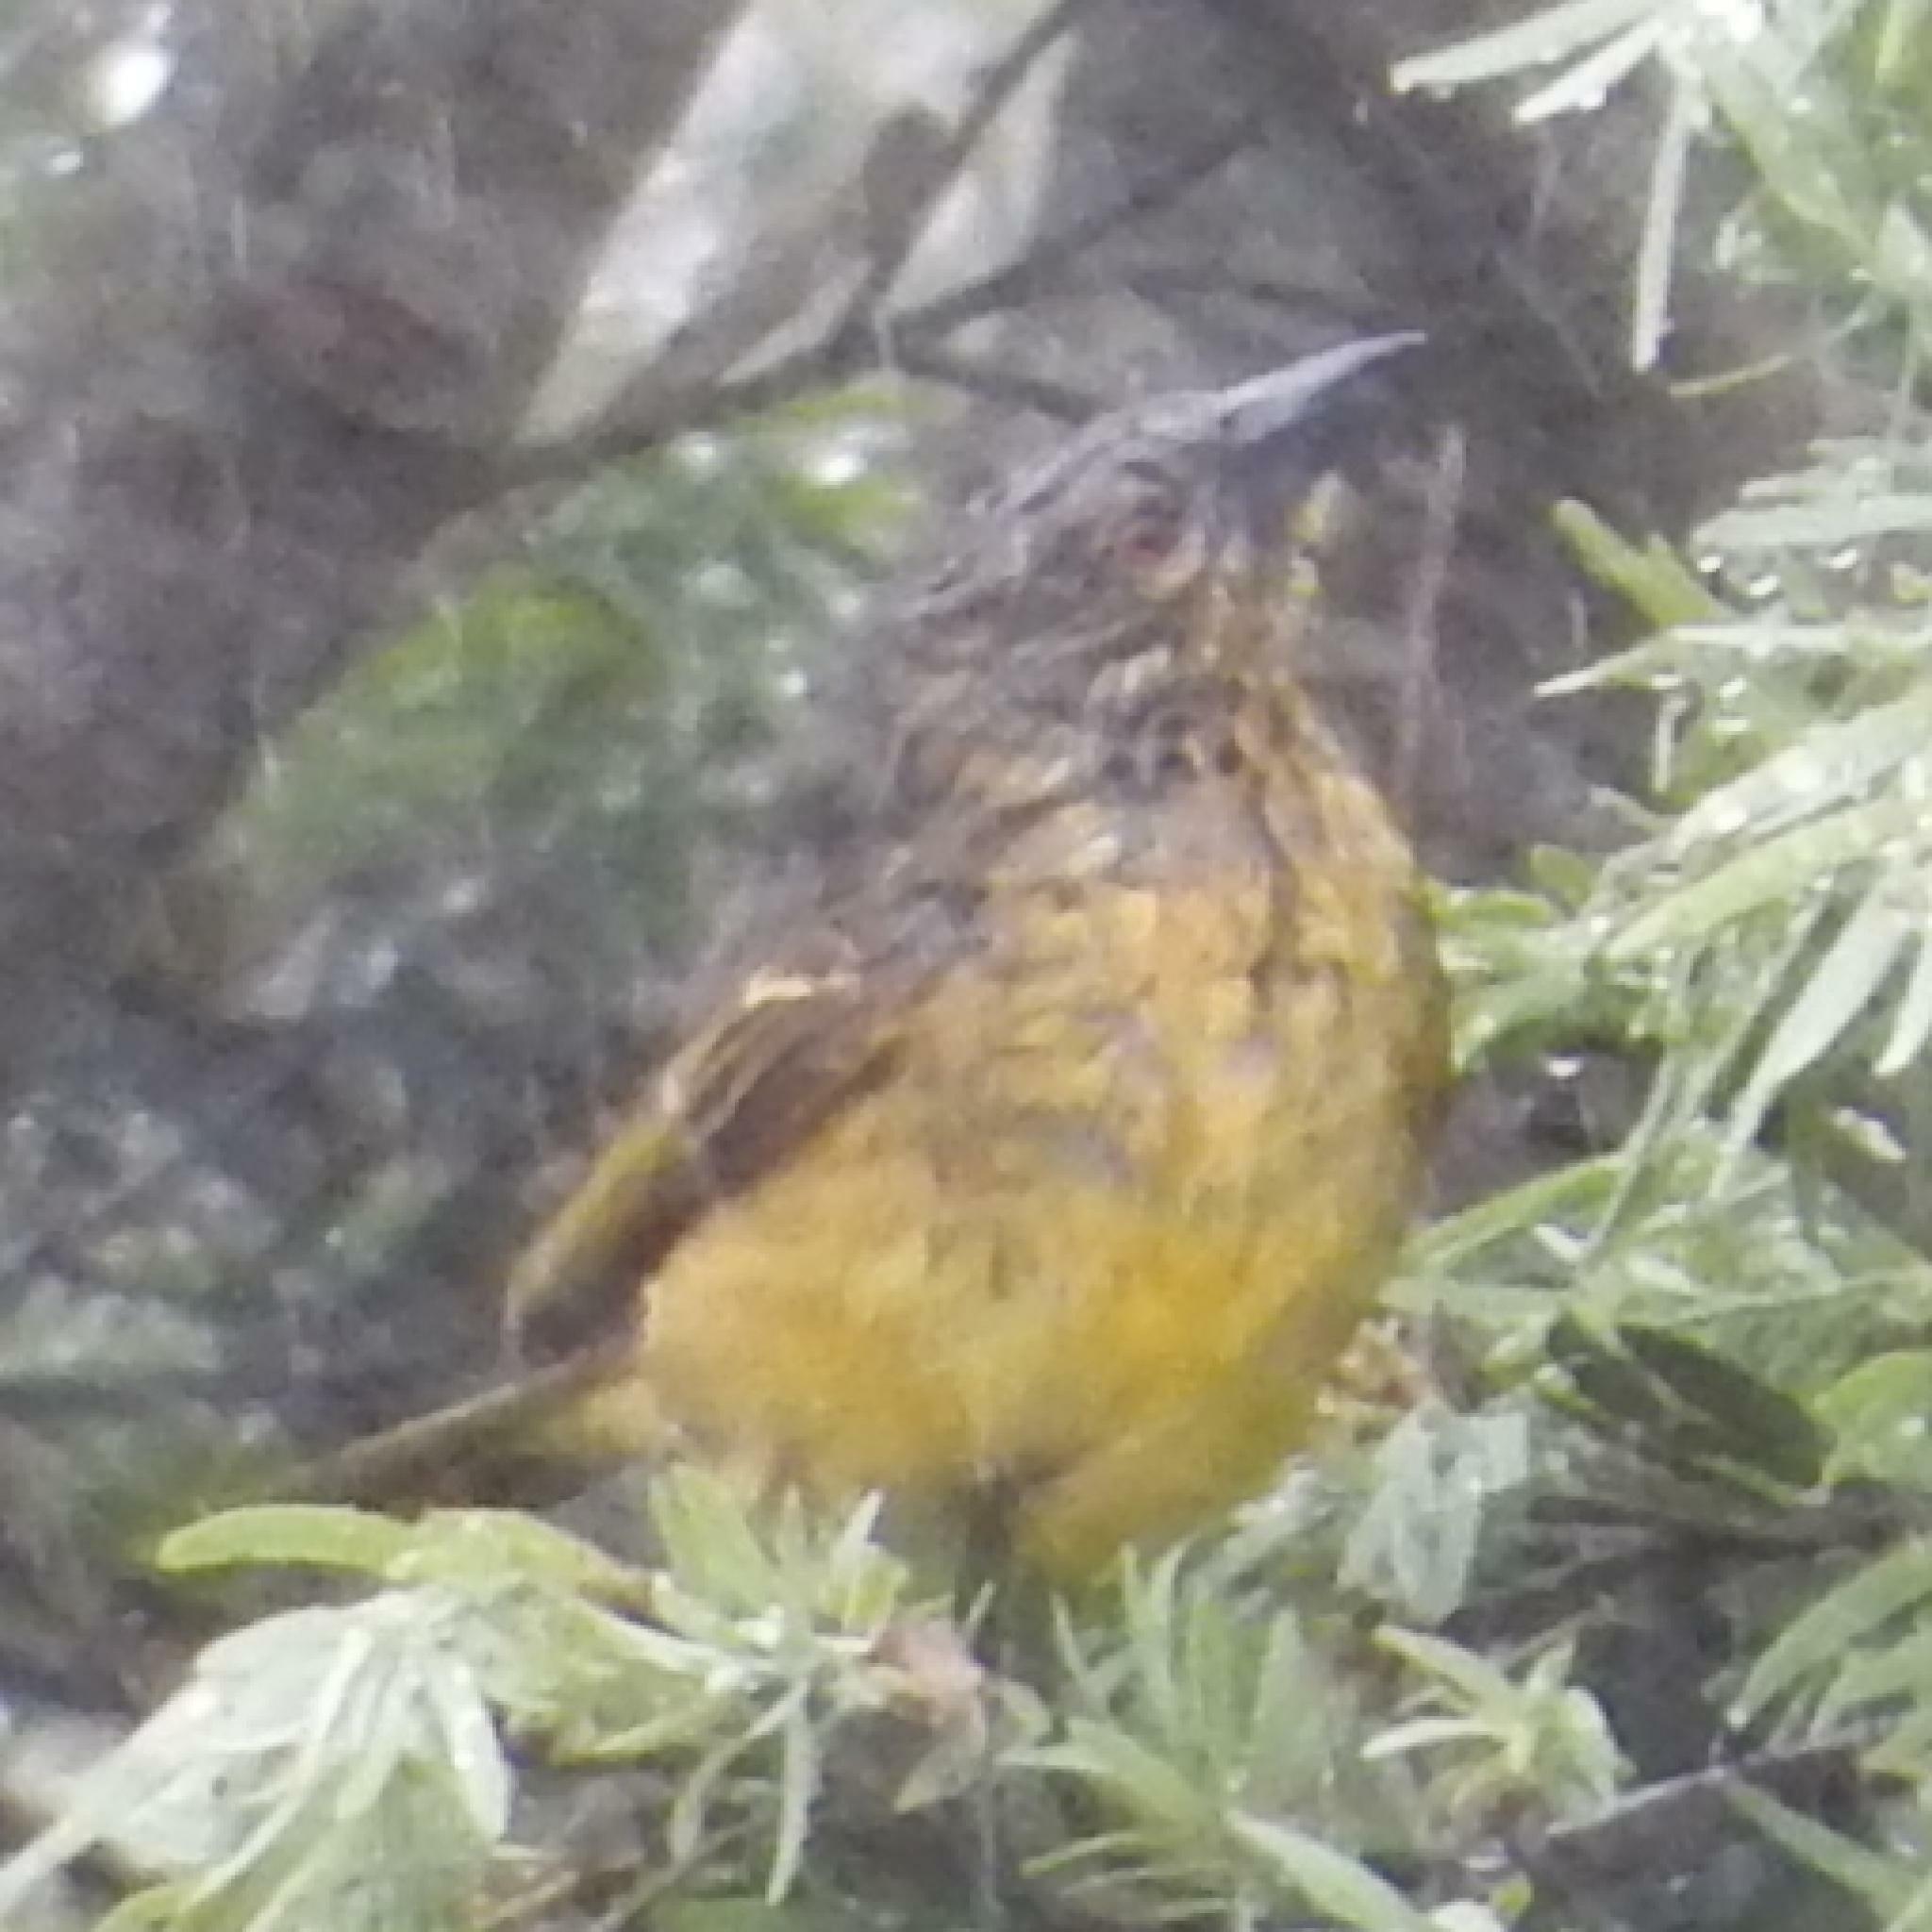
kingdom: Animalia
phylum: Chordata
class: Aves
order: Passeriformes
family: Ploceidae
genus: Ploceus
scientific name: Ploceus cucullatus
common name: Village weaver
